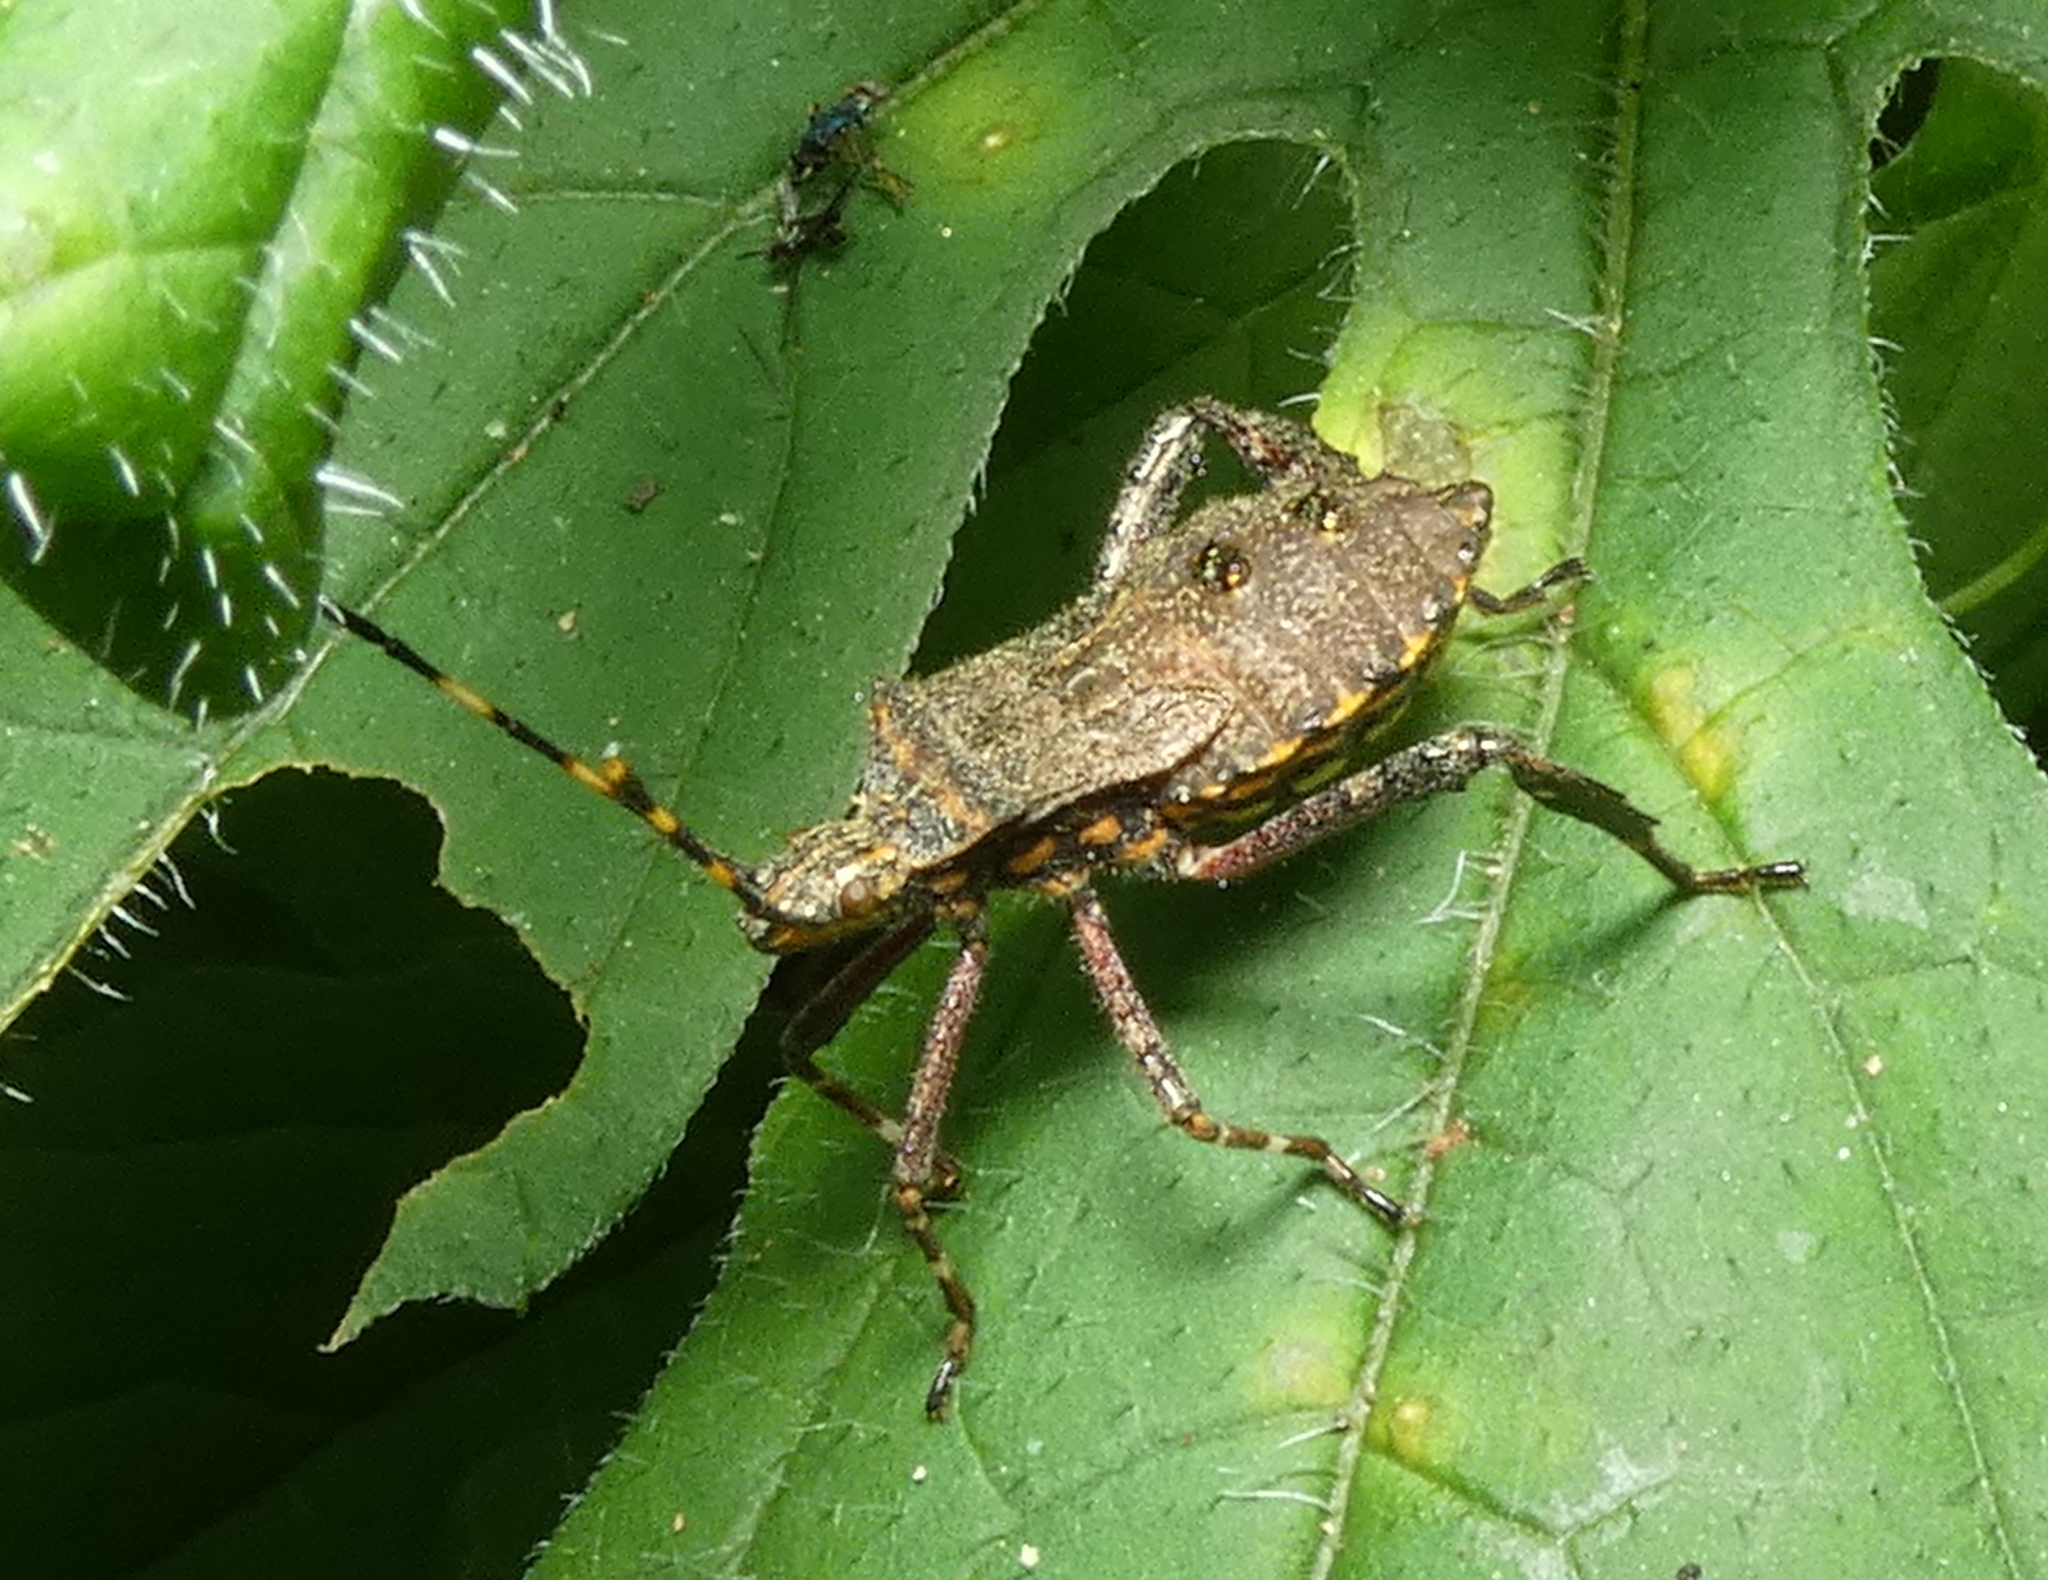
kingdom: Animalia
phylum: Arthropoda
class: Insecta
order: Hemiptera
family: Coreidae
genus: Leptoglossus
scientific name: Leptoglossus gonagra
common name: Citron bug
